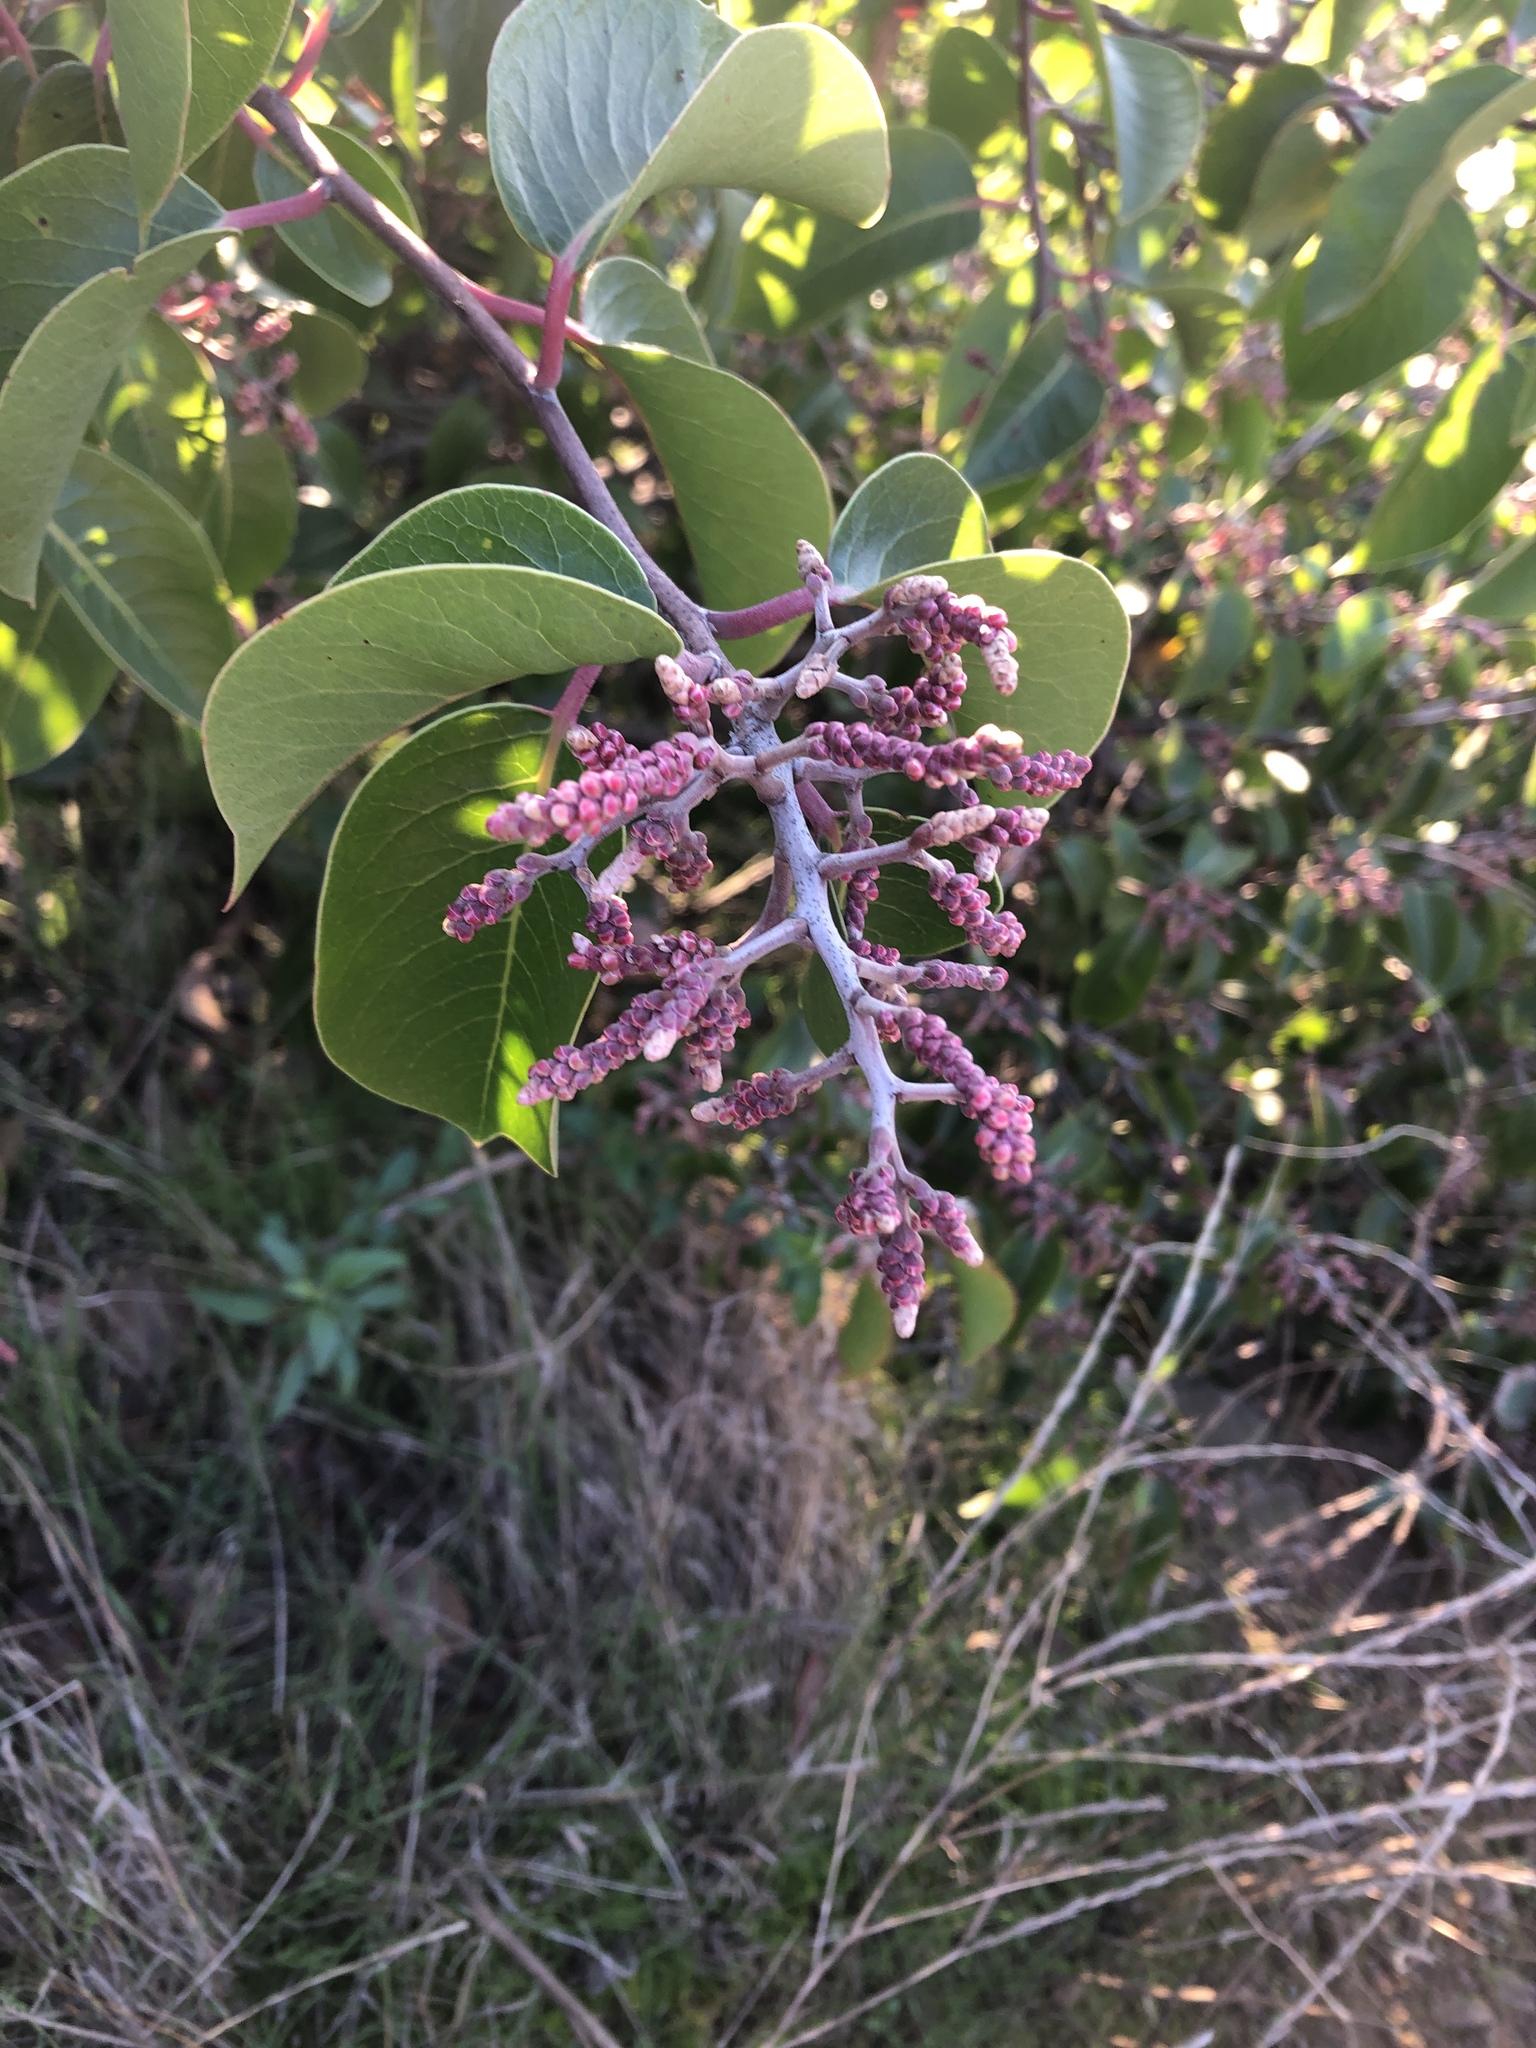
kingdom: Plantae
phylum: Tracheophyta
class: Magnoliopsida
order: Sapindales
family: Anacardiaceae
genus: Rhus
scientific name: Rhus ovata
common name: Sugar sumac
